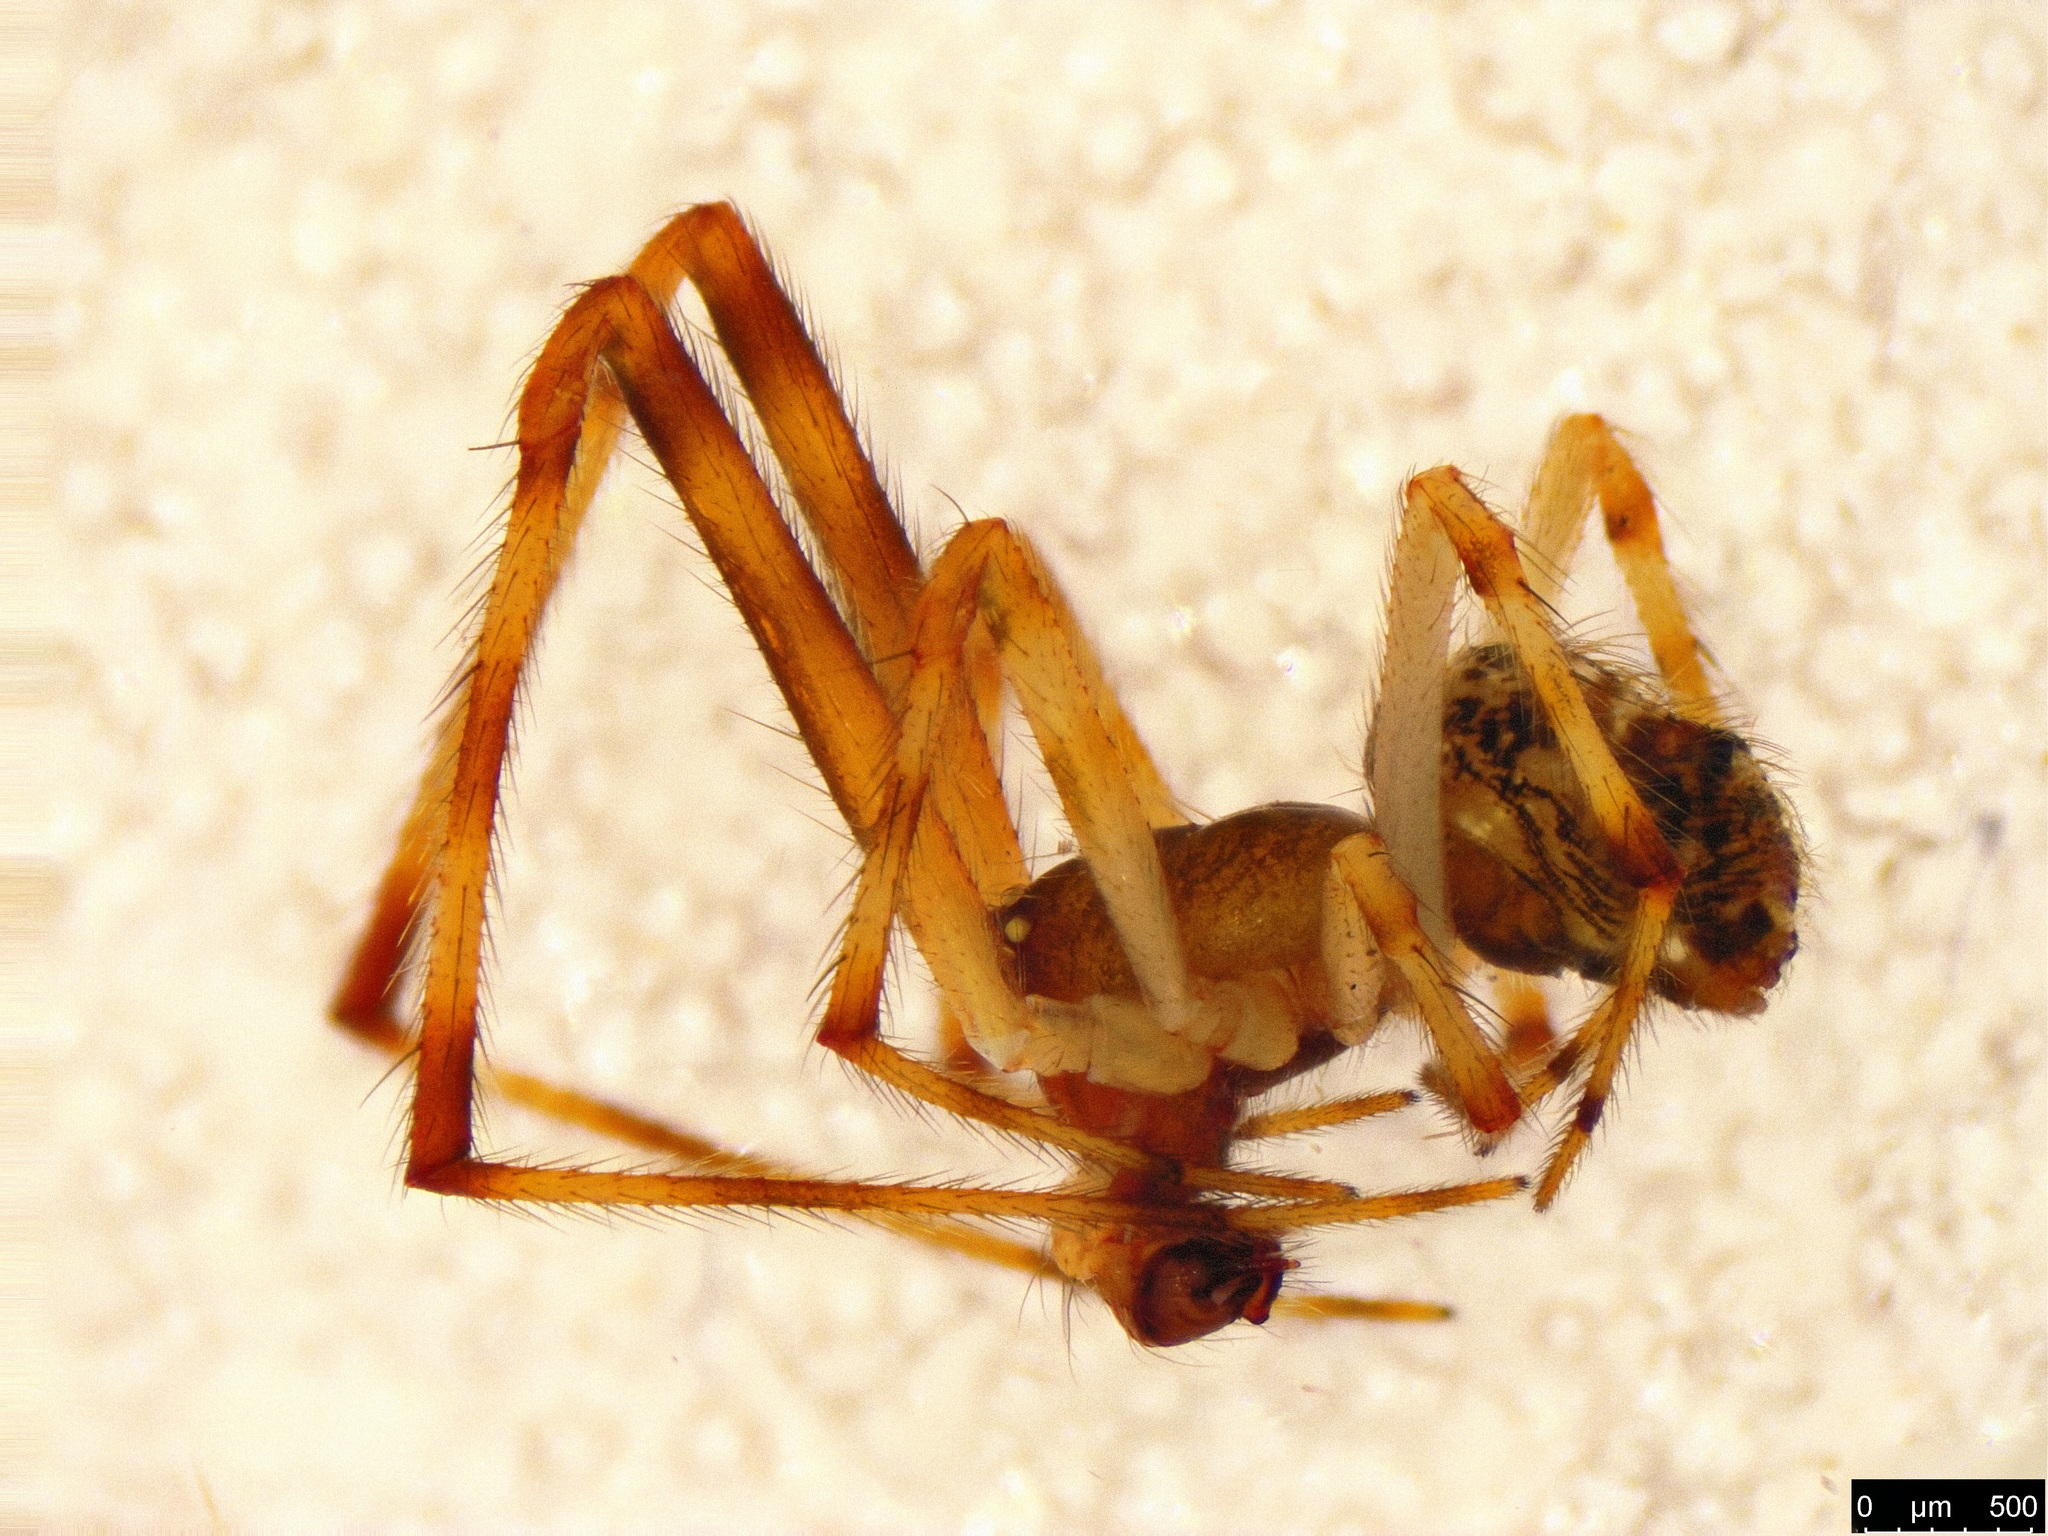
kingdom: Animalia
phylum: Arthropoda
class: Arachnida
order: Araneae
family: Theridiidae
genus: Cryptachaea
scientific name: Cryptachaea veruculata
